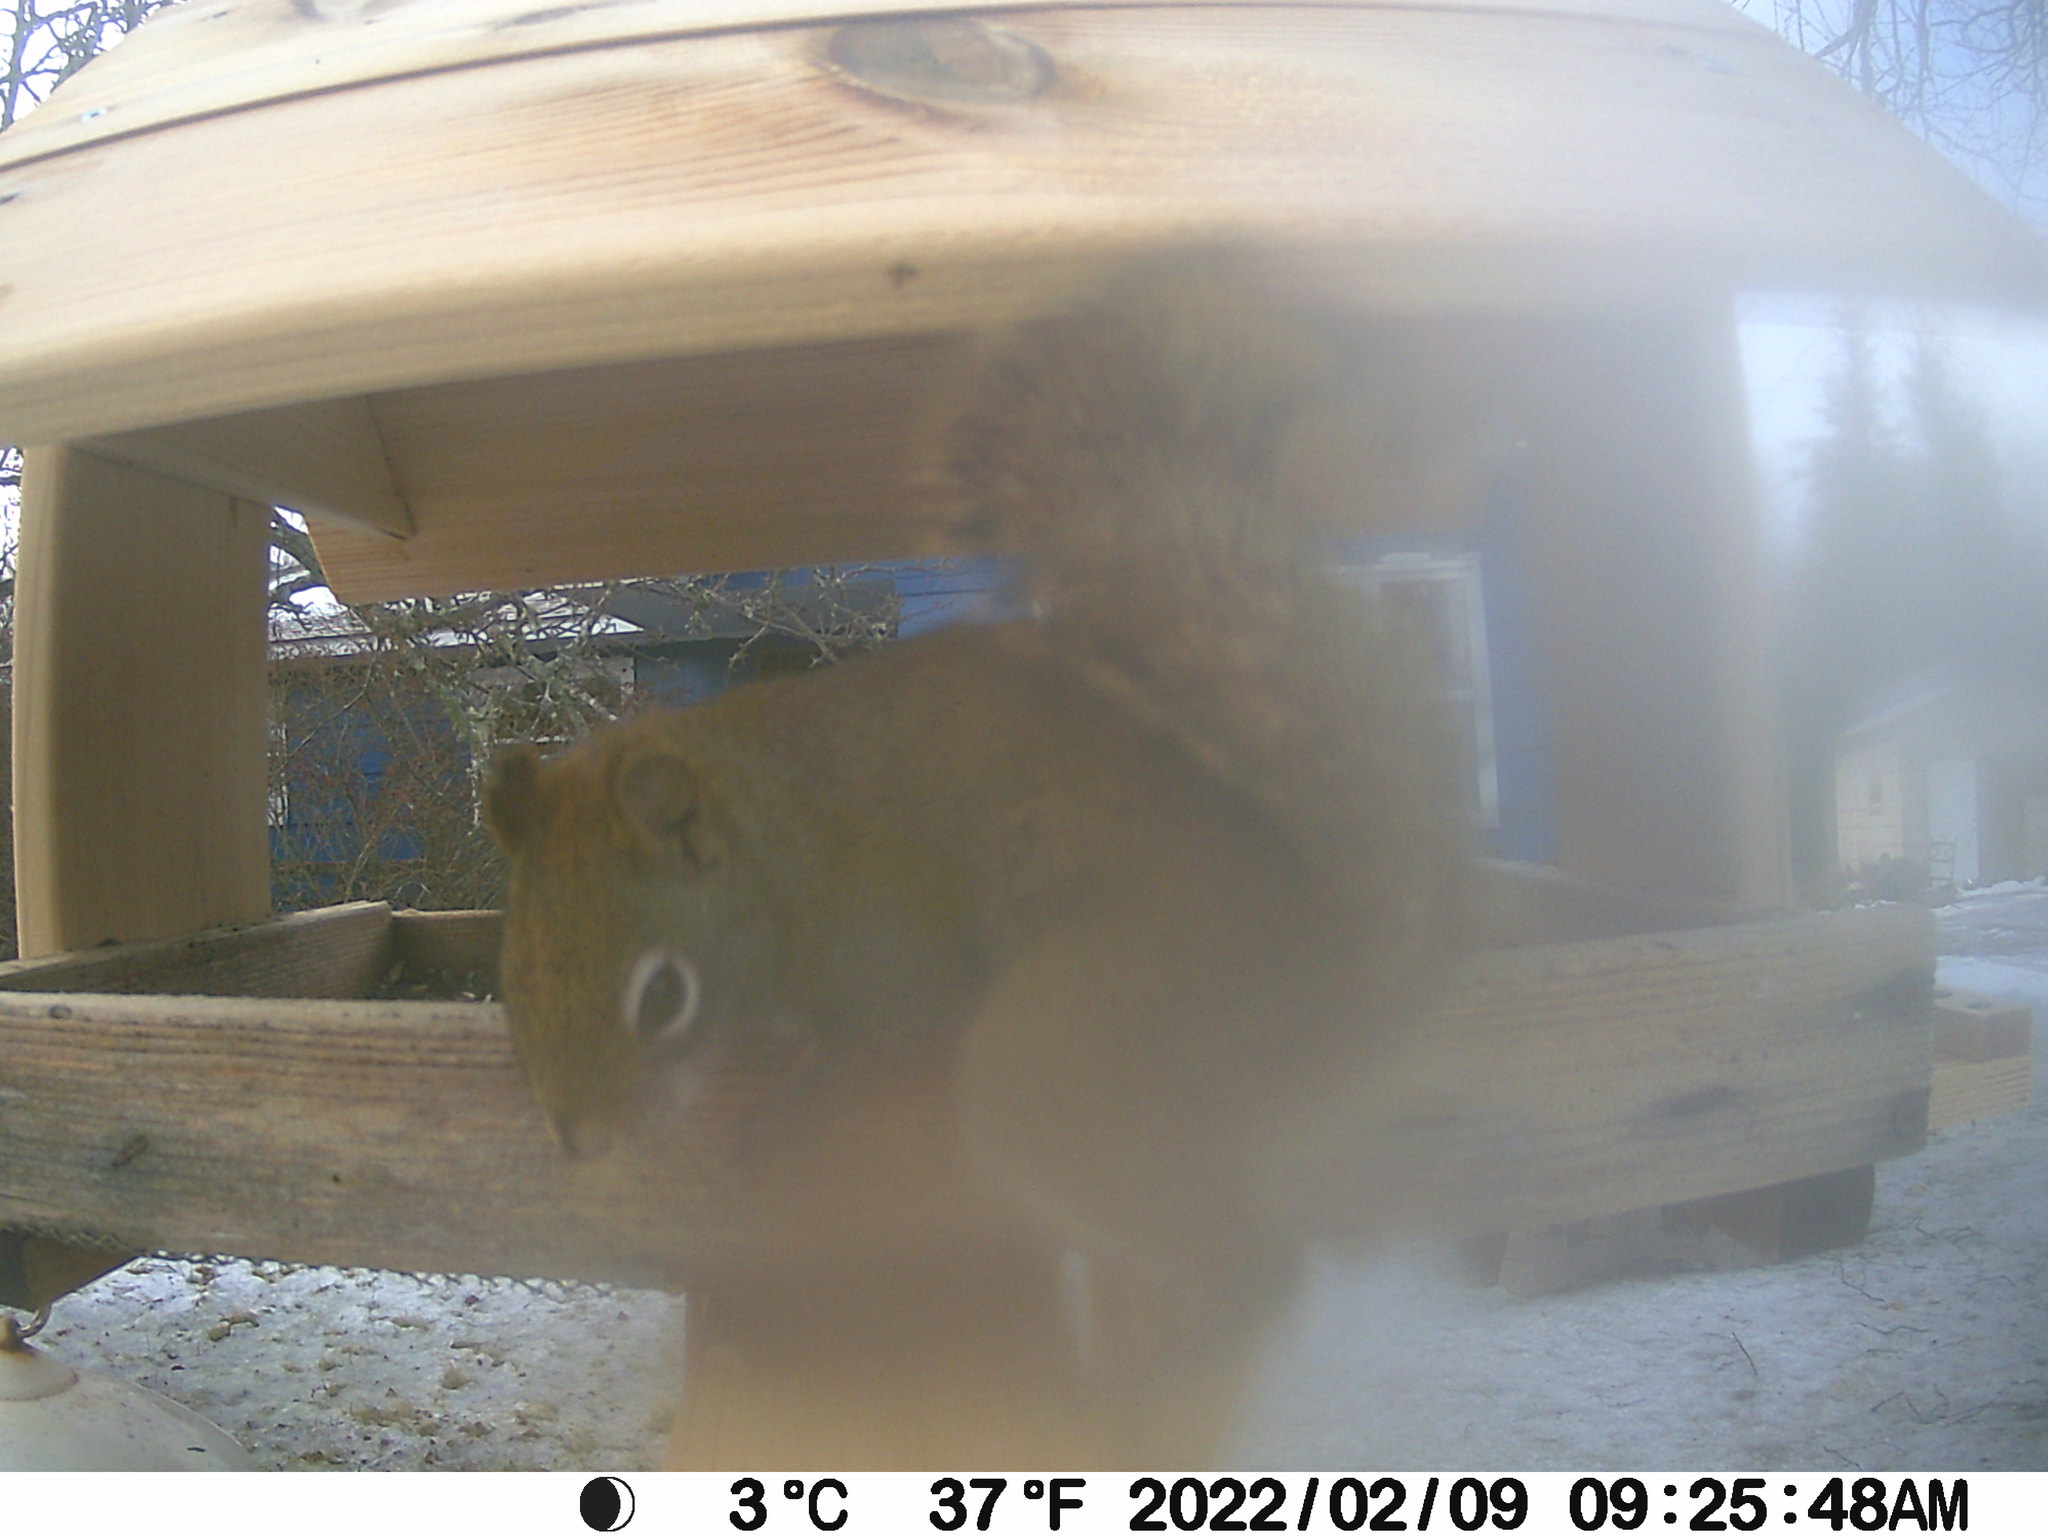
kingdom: Animalia
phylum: Chordata
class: Mammalia
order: Rodentia
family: Sciuridae
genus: Tamiasciurus
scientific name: Tamiasciurus hudsonicus
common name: Red squirrel
